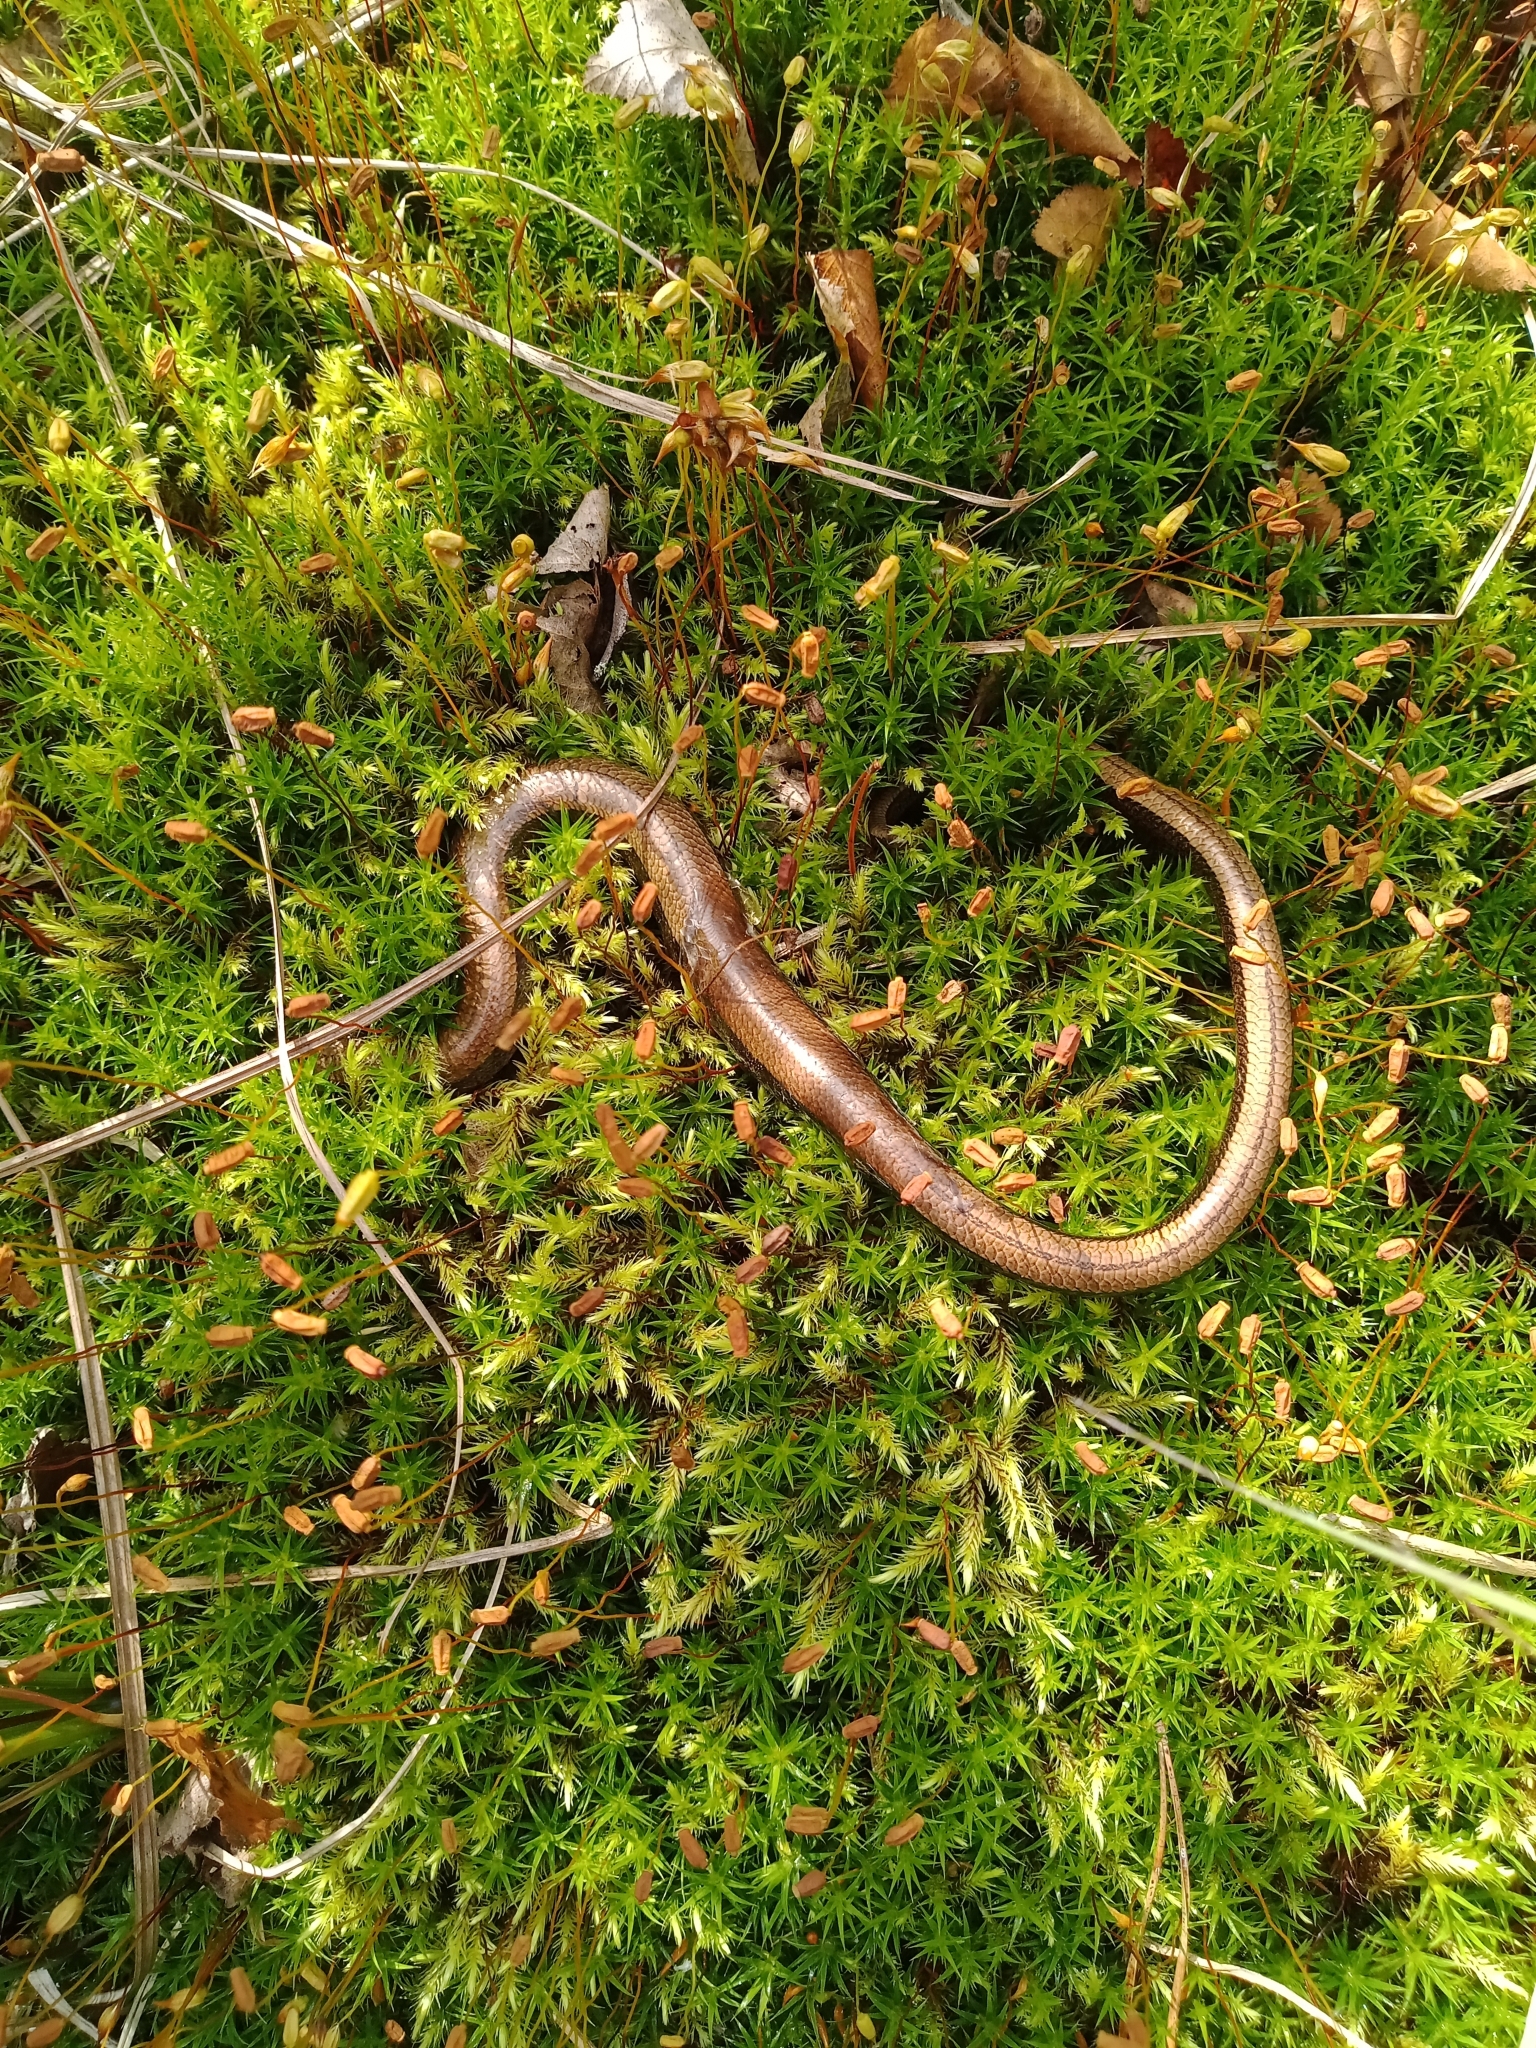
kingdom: Animalia
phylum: Chordata
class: Squamata
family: Anguidae
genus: Anguis
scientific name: Anguis colchica
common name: Slow worm
